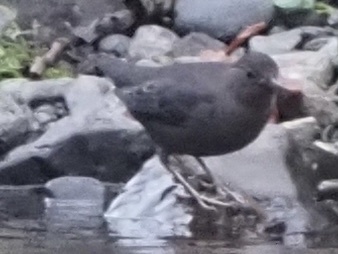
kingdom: Animalia
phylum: Chordata
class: Aves
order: Passeriformes
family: Cinclidae
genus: Cinclus
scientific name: Cinclus mexicanus
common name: American dipper
